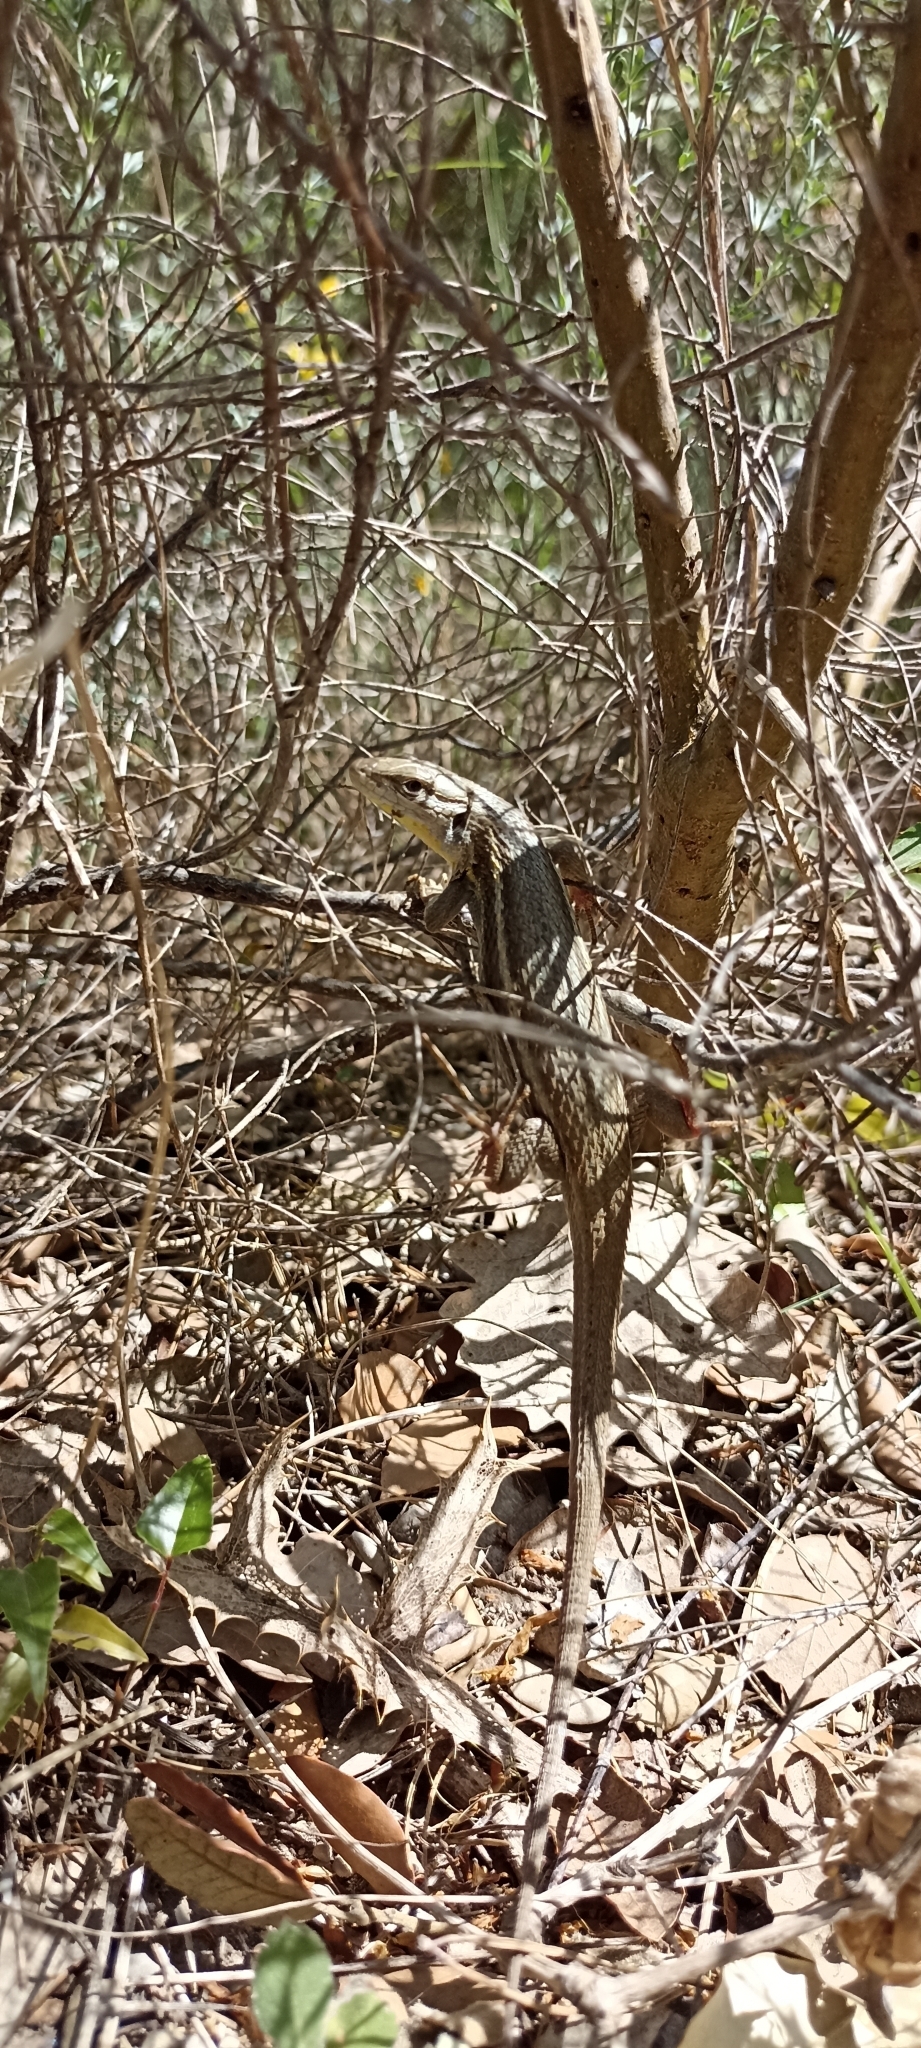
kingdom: Animalia
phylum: Chordata
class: Squamata
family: Lacertidae
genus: Psammodromus
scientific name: Psammodromus algirus
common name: Algerian psammodromus
